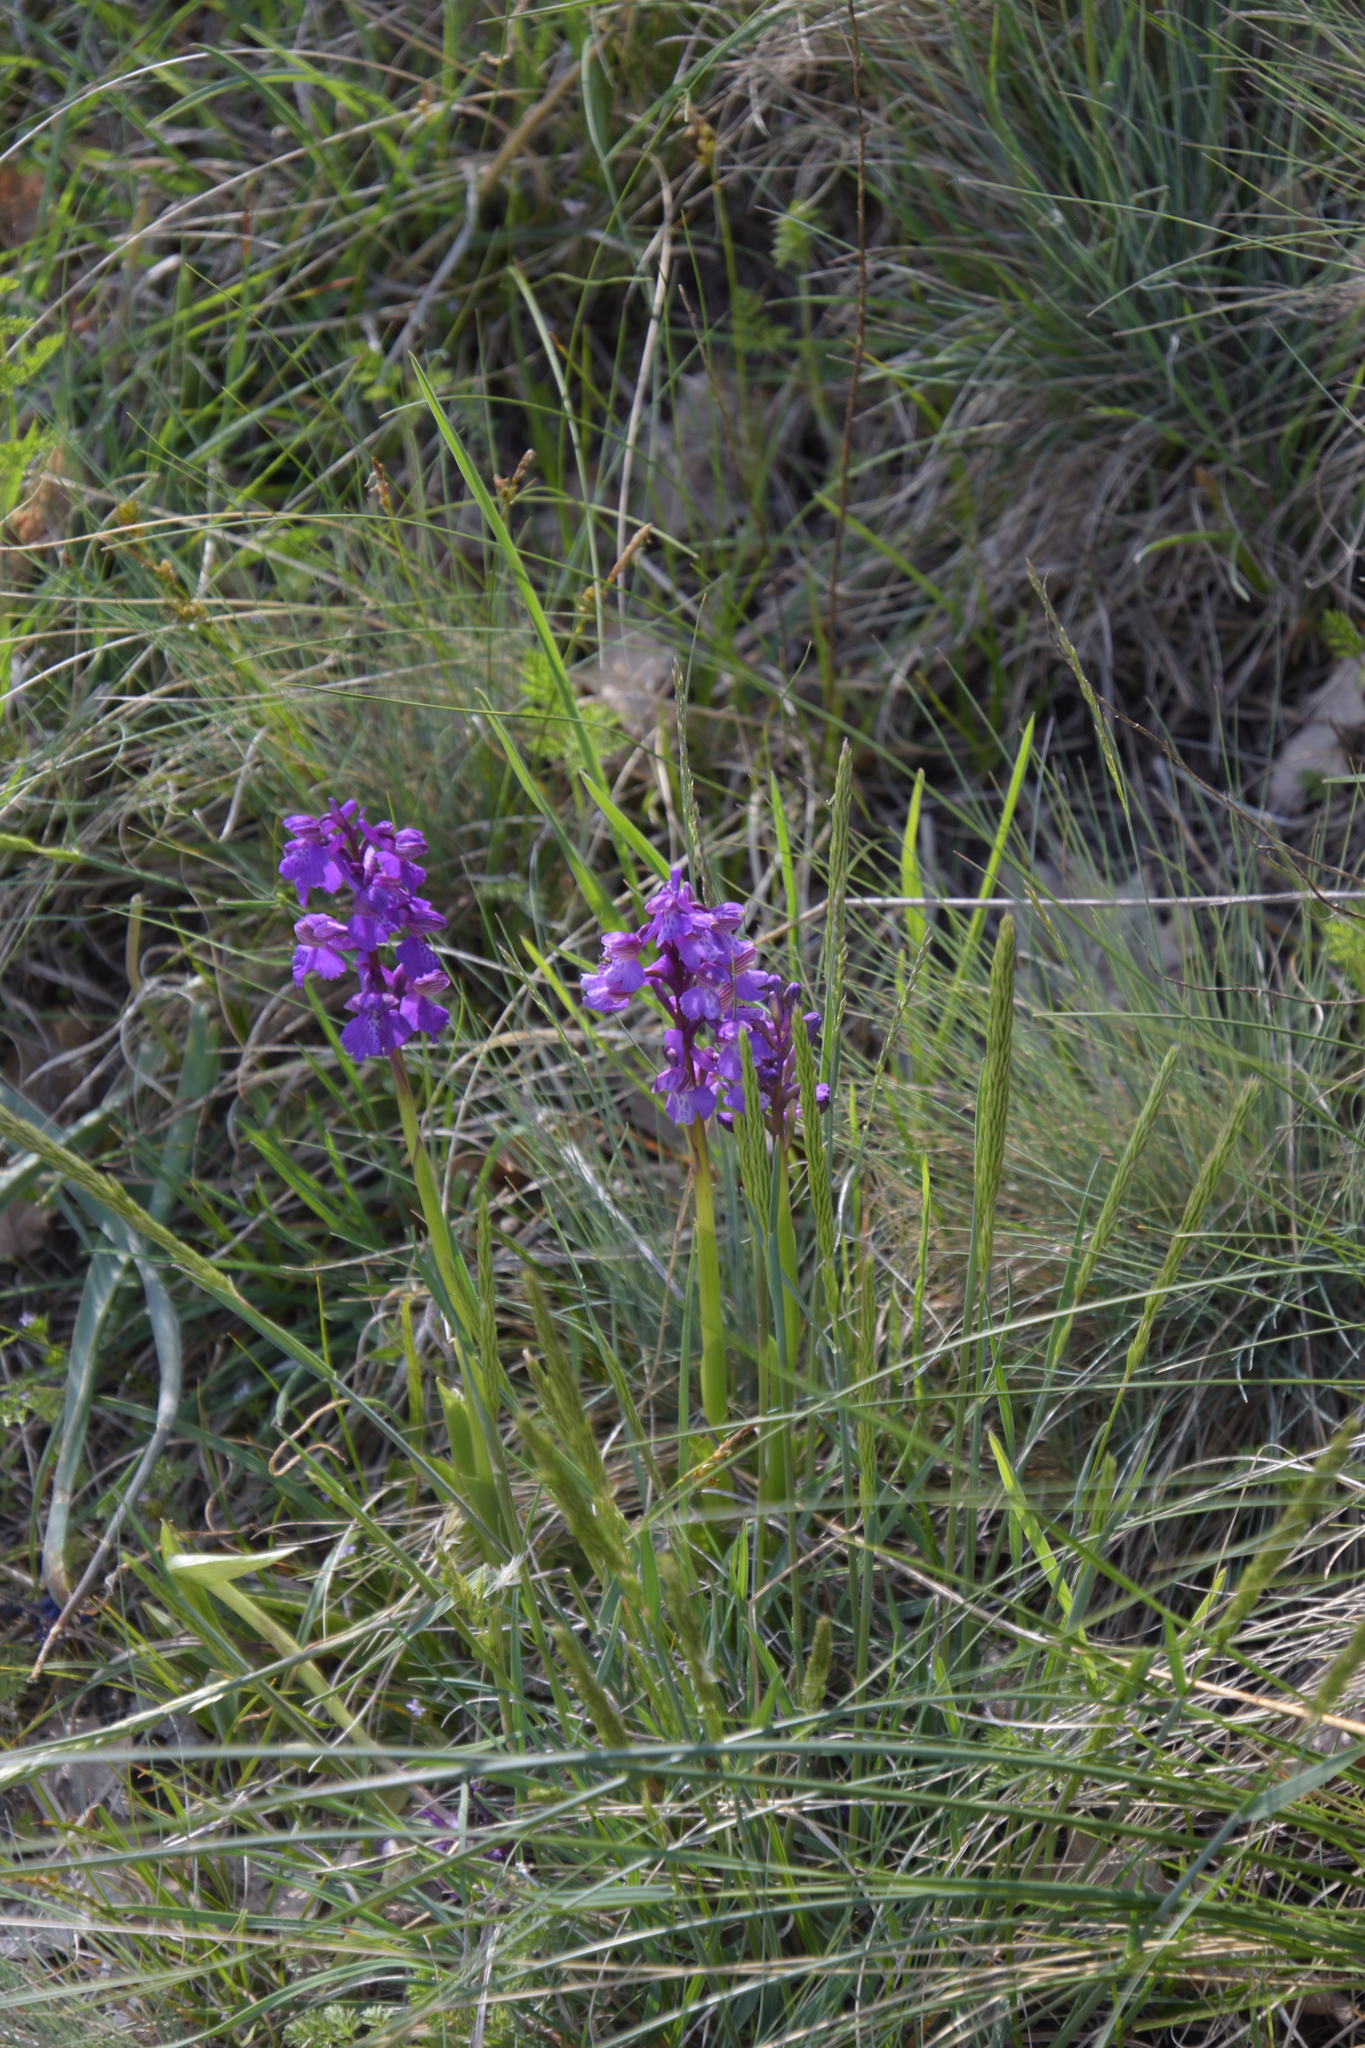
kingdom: Plantae
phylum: Tracheophyta
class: Liliopsida
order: Asparagales
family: Orchidaceae
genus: Anacamptis
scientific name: Anacamptis morio
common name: Green-winged orchid
